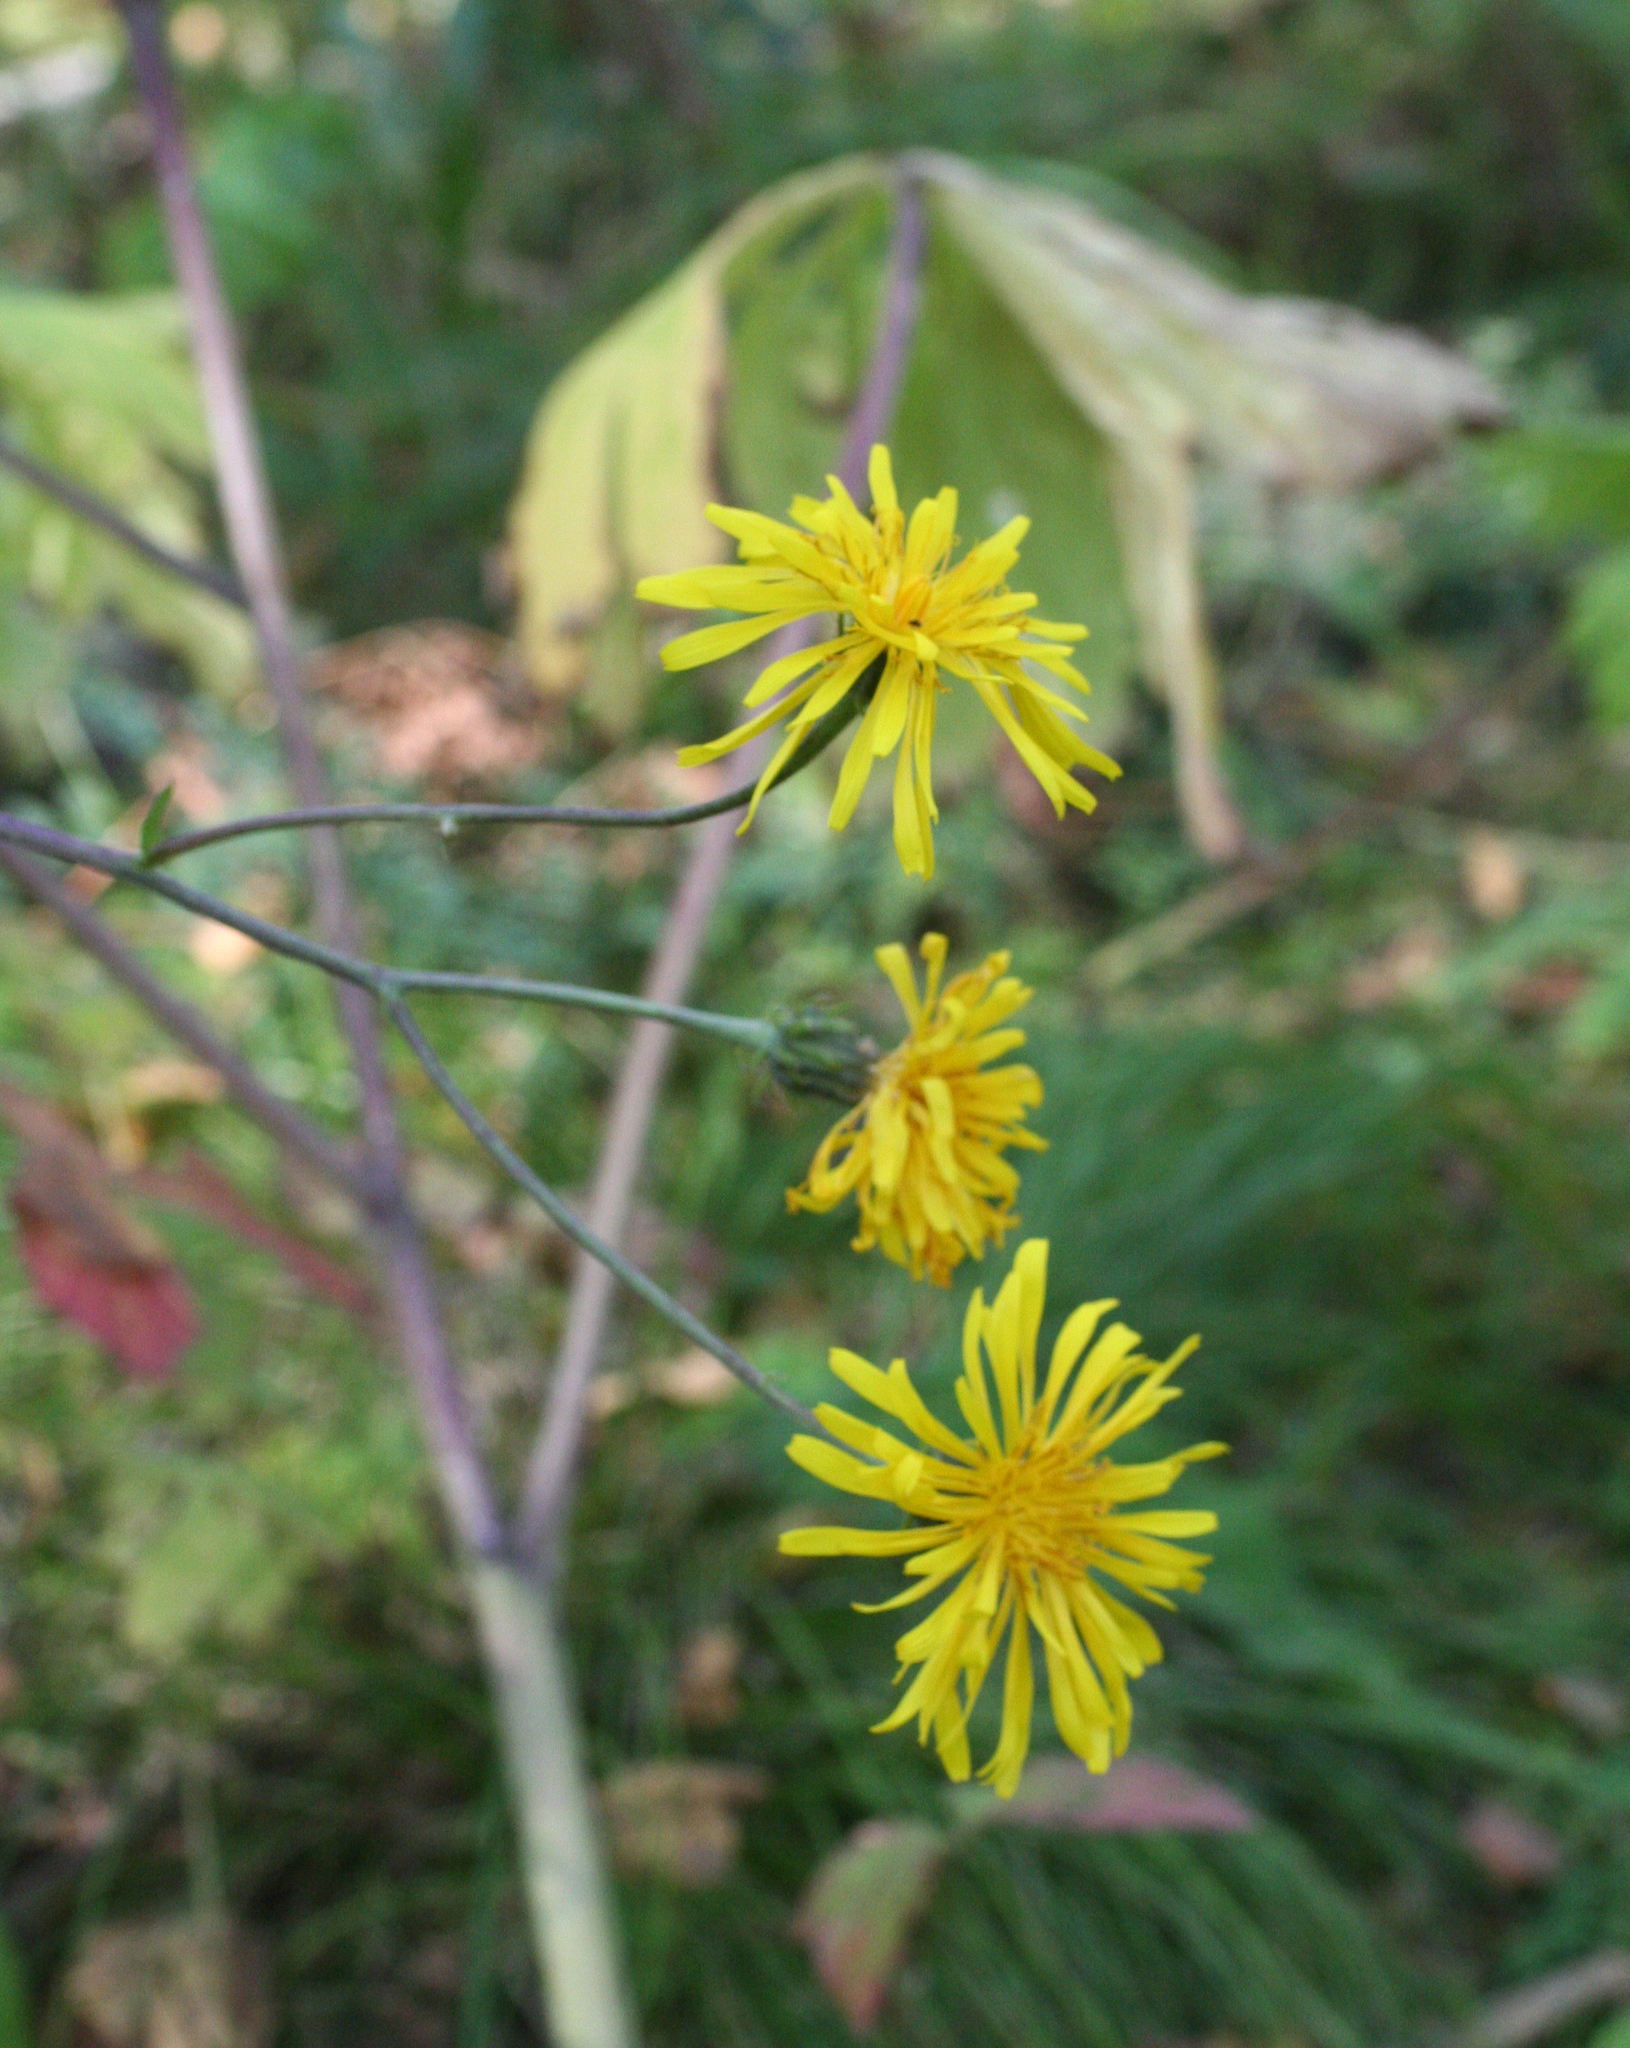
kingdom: Plantae
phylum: Tracheophyta
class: Magnoliopsida
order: Asterales
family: Asteraceae
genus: Crepis
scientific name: Crepis sibirica
